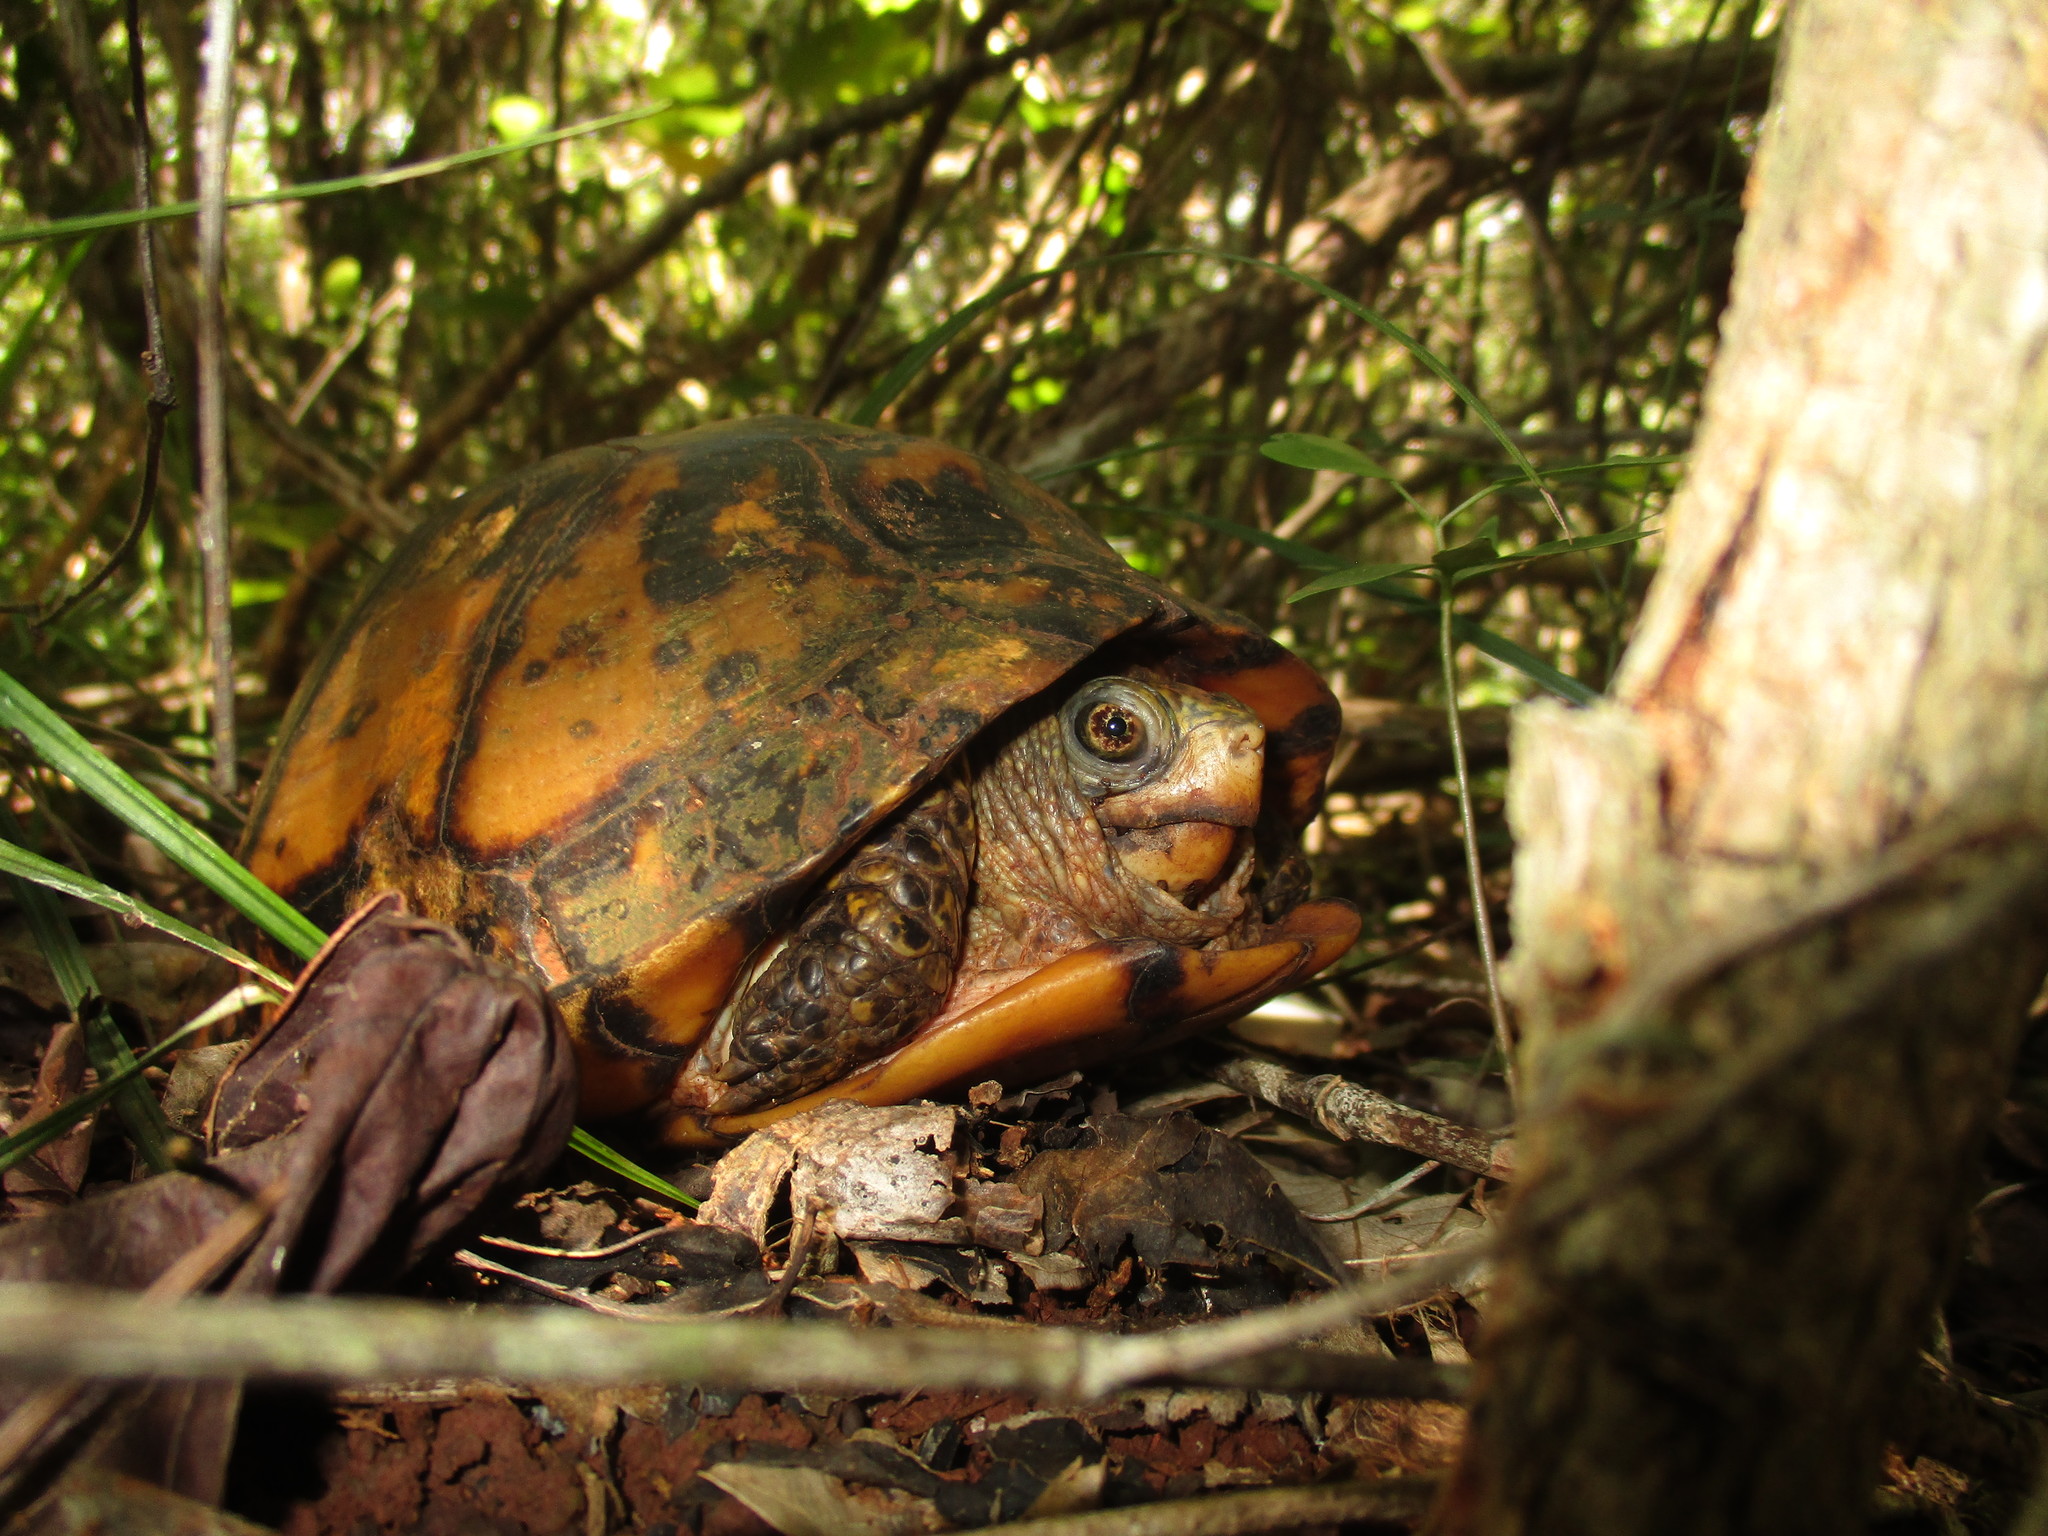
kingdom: Animalia
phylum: Chordata
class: Testudines
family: Emydidae
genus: Terrapene
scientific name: Terrapene yucatana
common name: Yucatan box turtle
